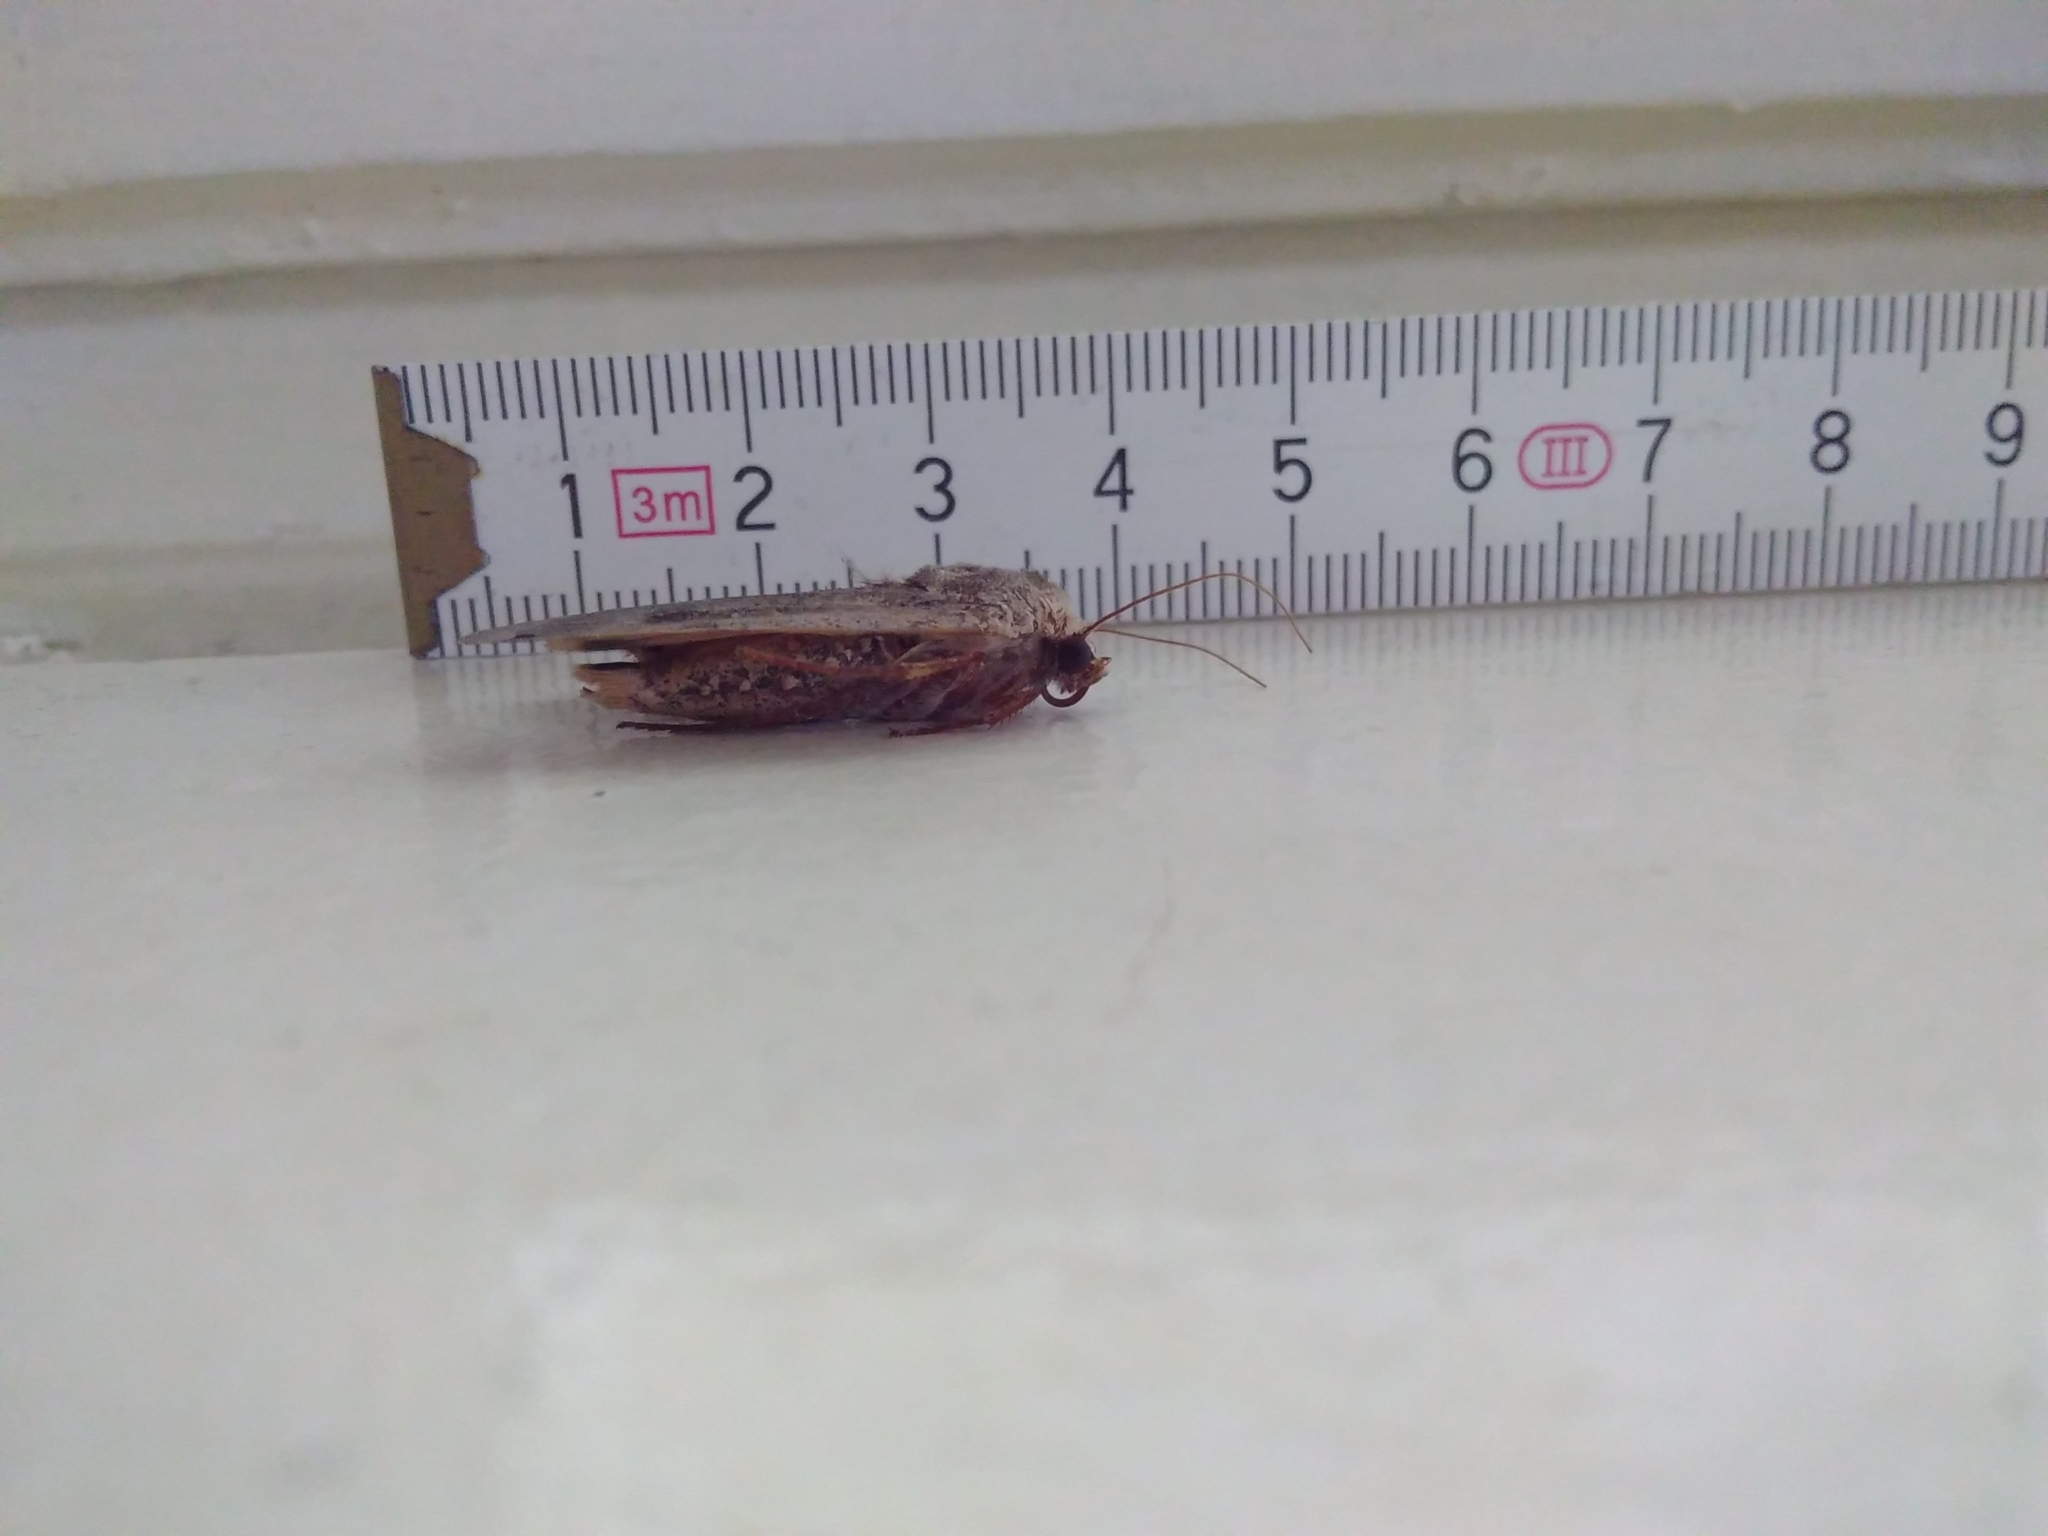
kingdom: Animalia
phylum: Arthropoda
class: Insecta
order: Lepidoptera
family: Noctuidae
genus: Noctua
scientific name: Noctua pronuba
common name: Large yellow underwing
